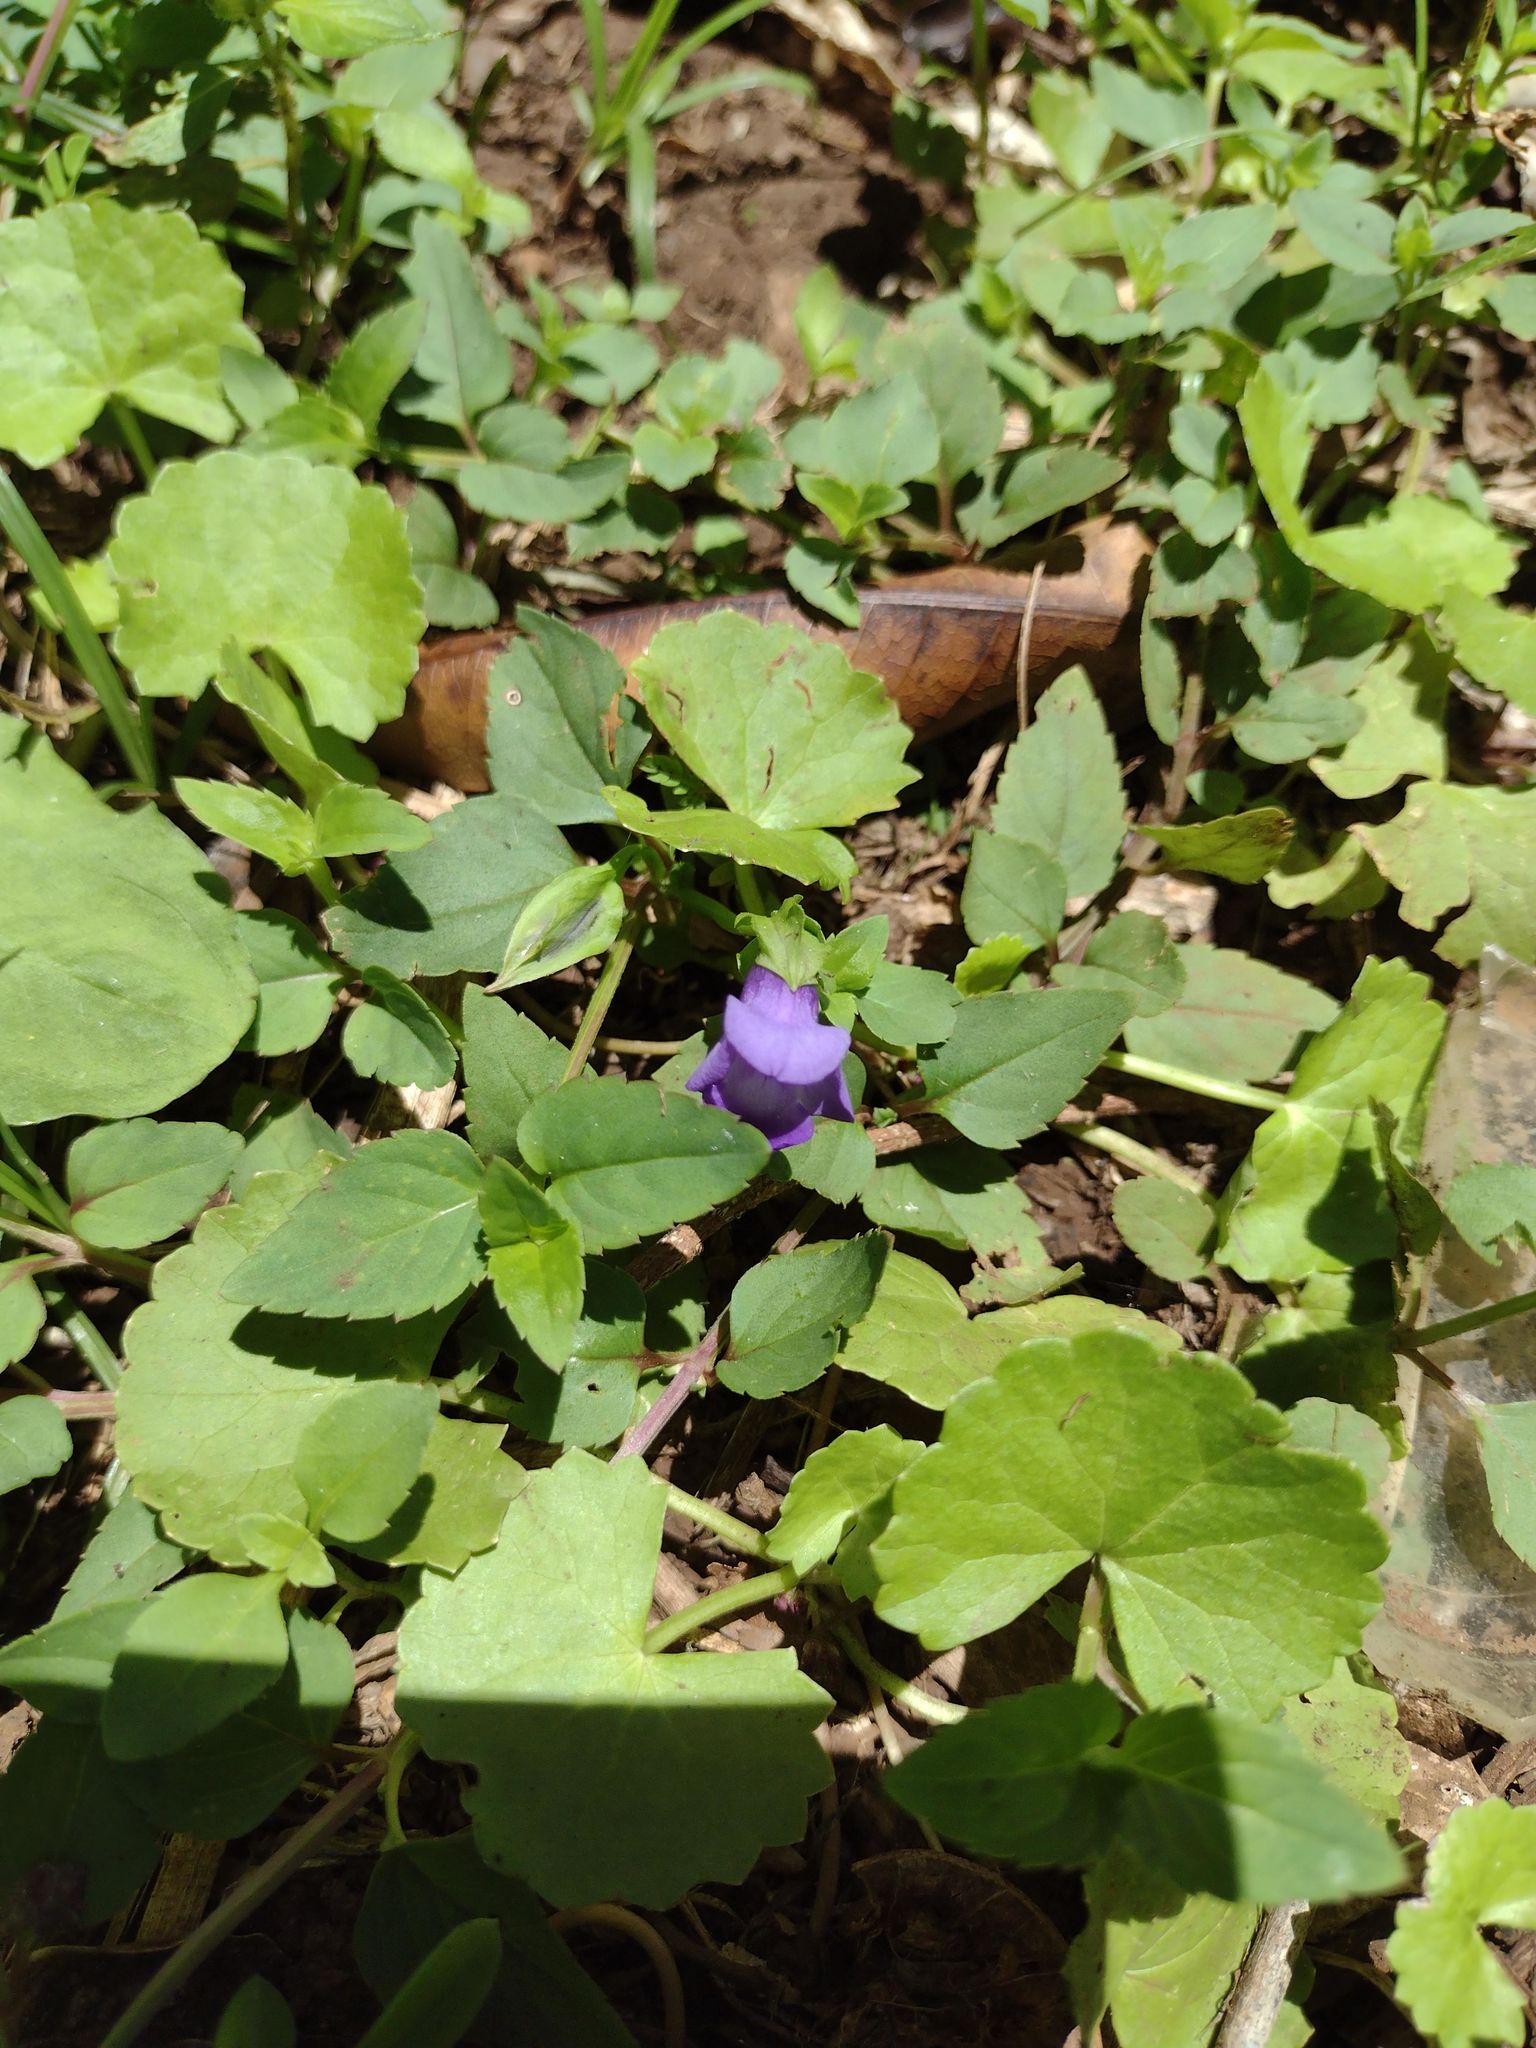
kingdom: Plantae
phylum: Tracheophyta
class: Magnoliopsida
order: Lamiales
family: Linderniaceae
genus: Torenia
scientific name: Torenia asiatica
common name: Wishbone flower
